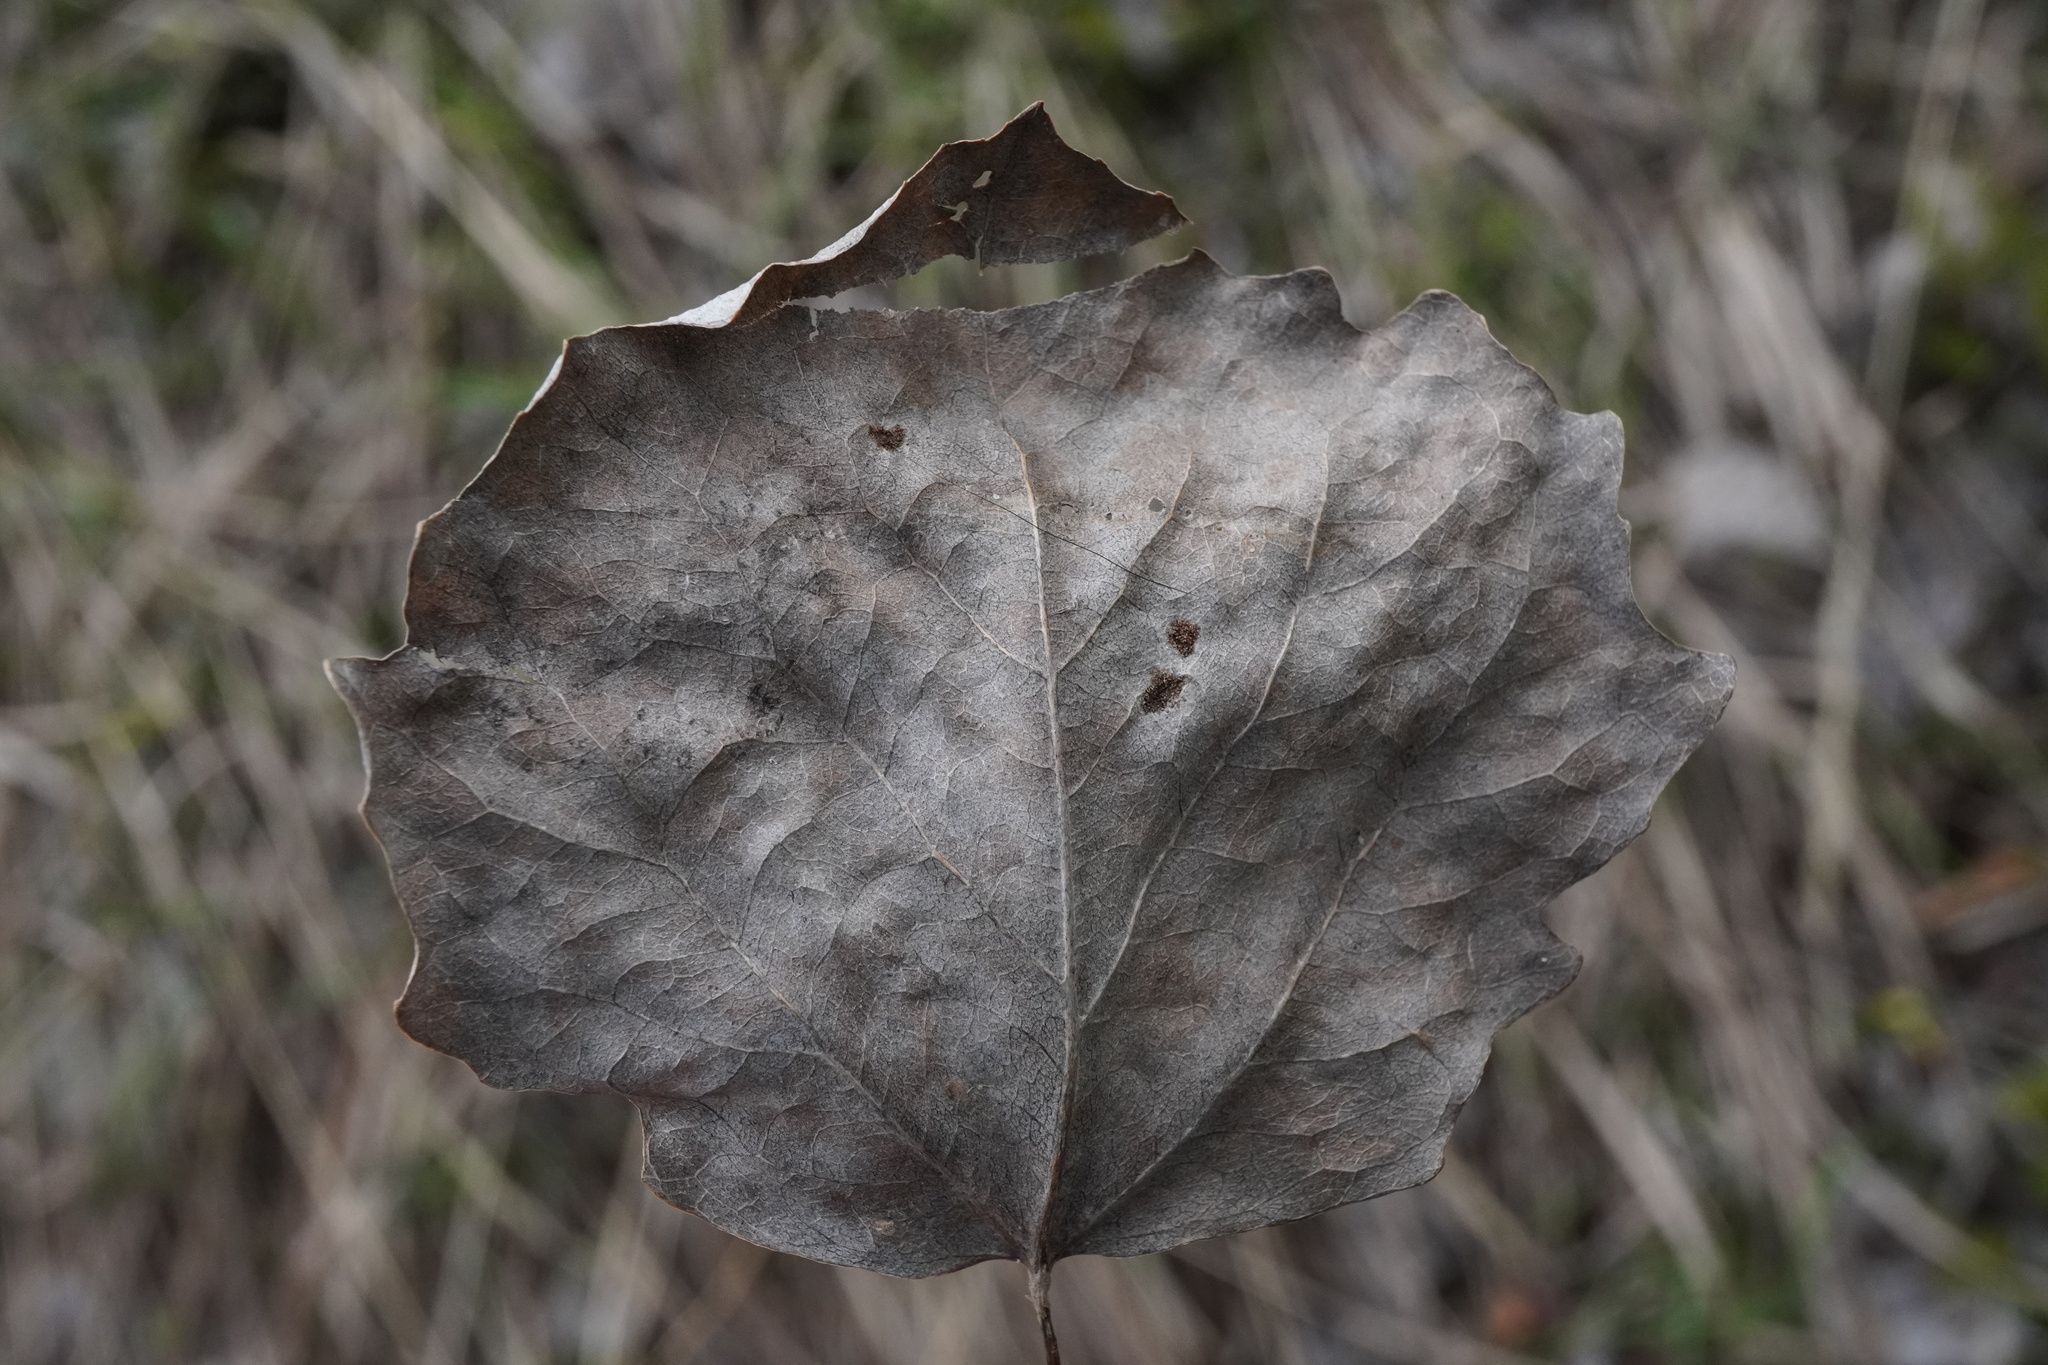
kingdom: Plantae
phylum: Tracheophyta
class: Magnoliopsida
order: Malpighiales
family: Salicaceae
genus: Populus
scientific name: Populus tremula
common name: European aspen
